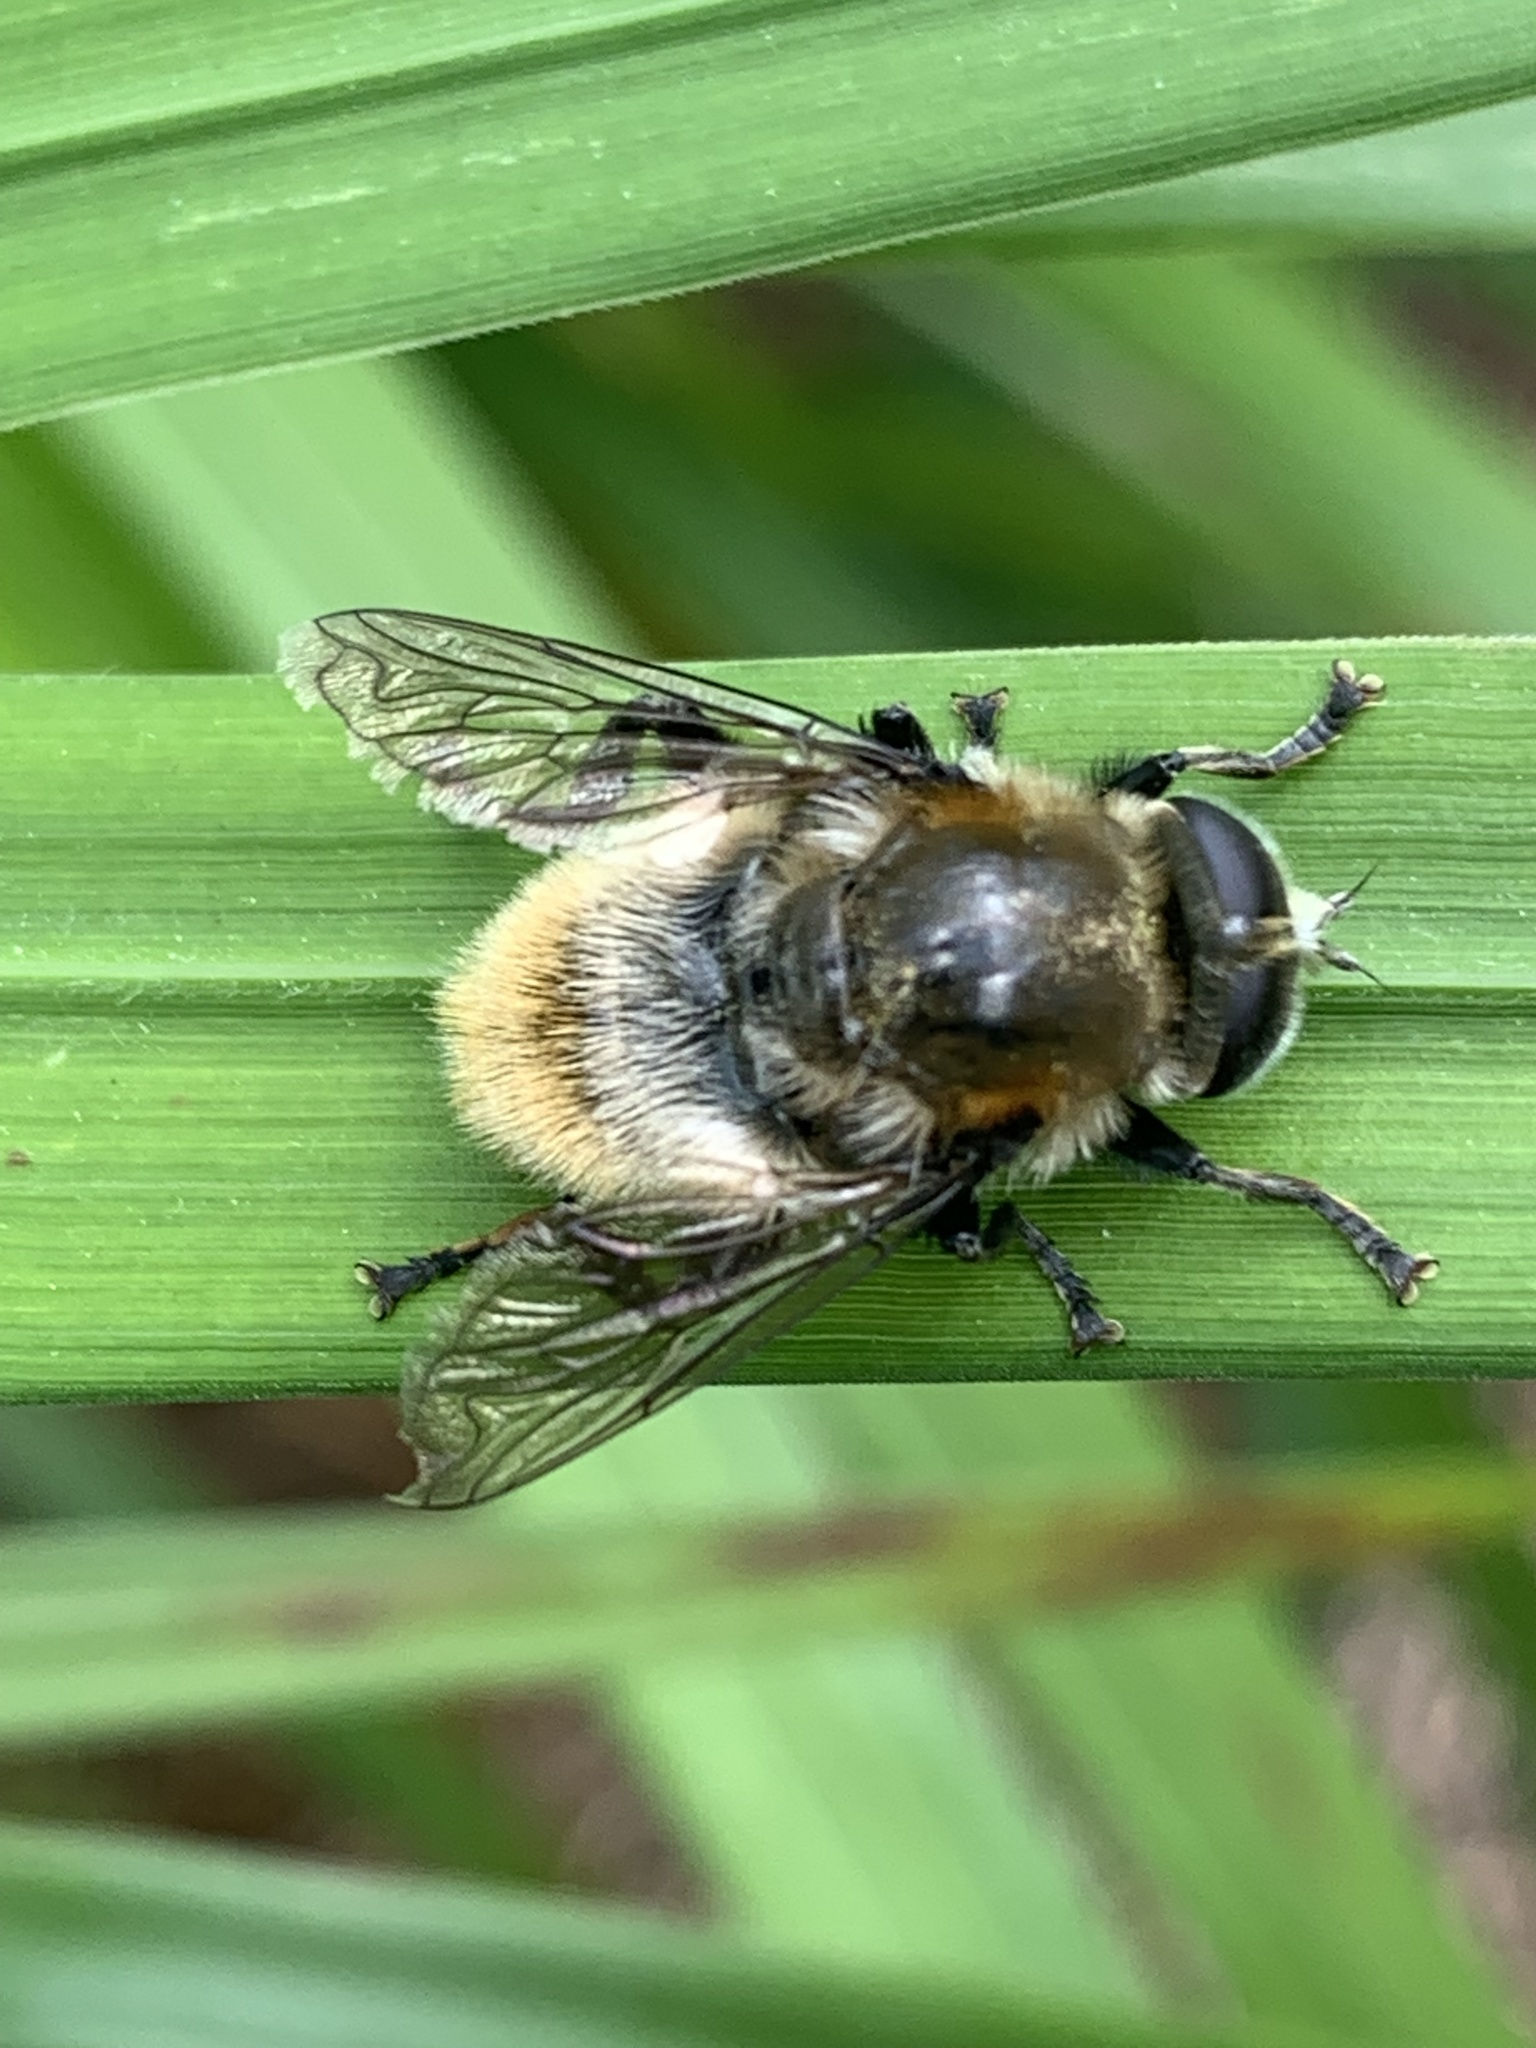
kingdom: Animalia
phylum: Arthropoda
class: Insecta
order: Diptera
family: Syrphidae
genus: Merodon
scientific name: Merodon equestris
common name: Greater bulb-fly
